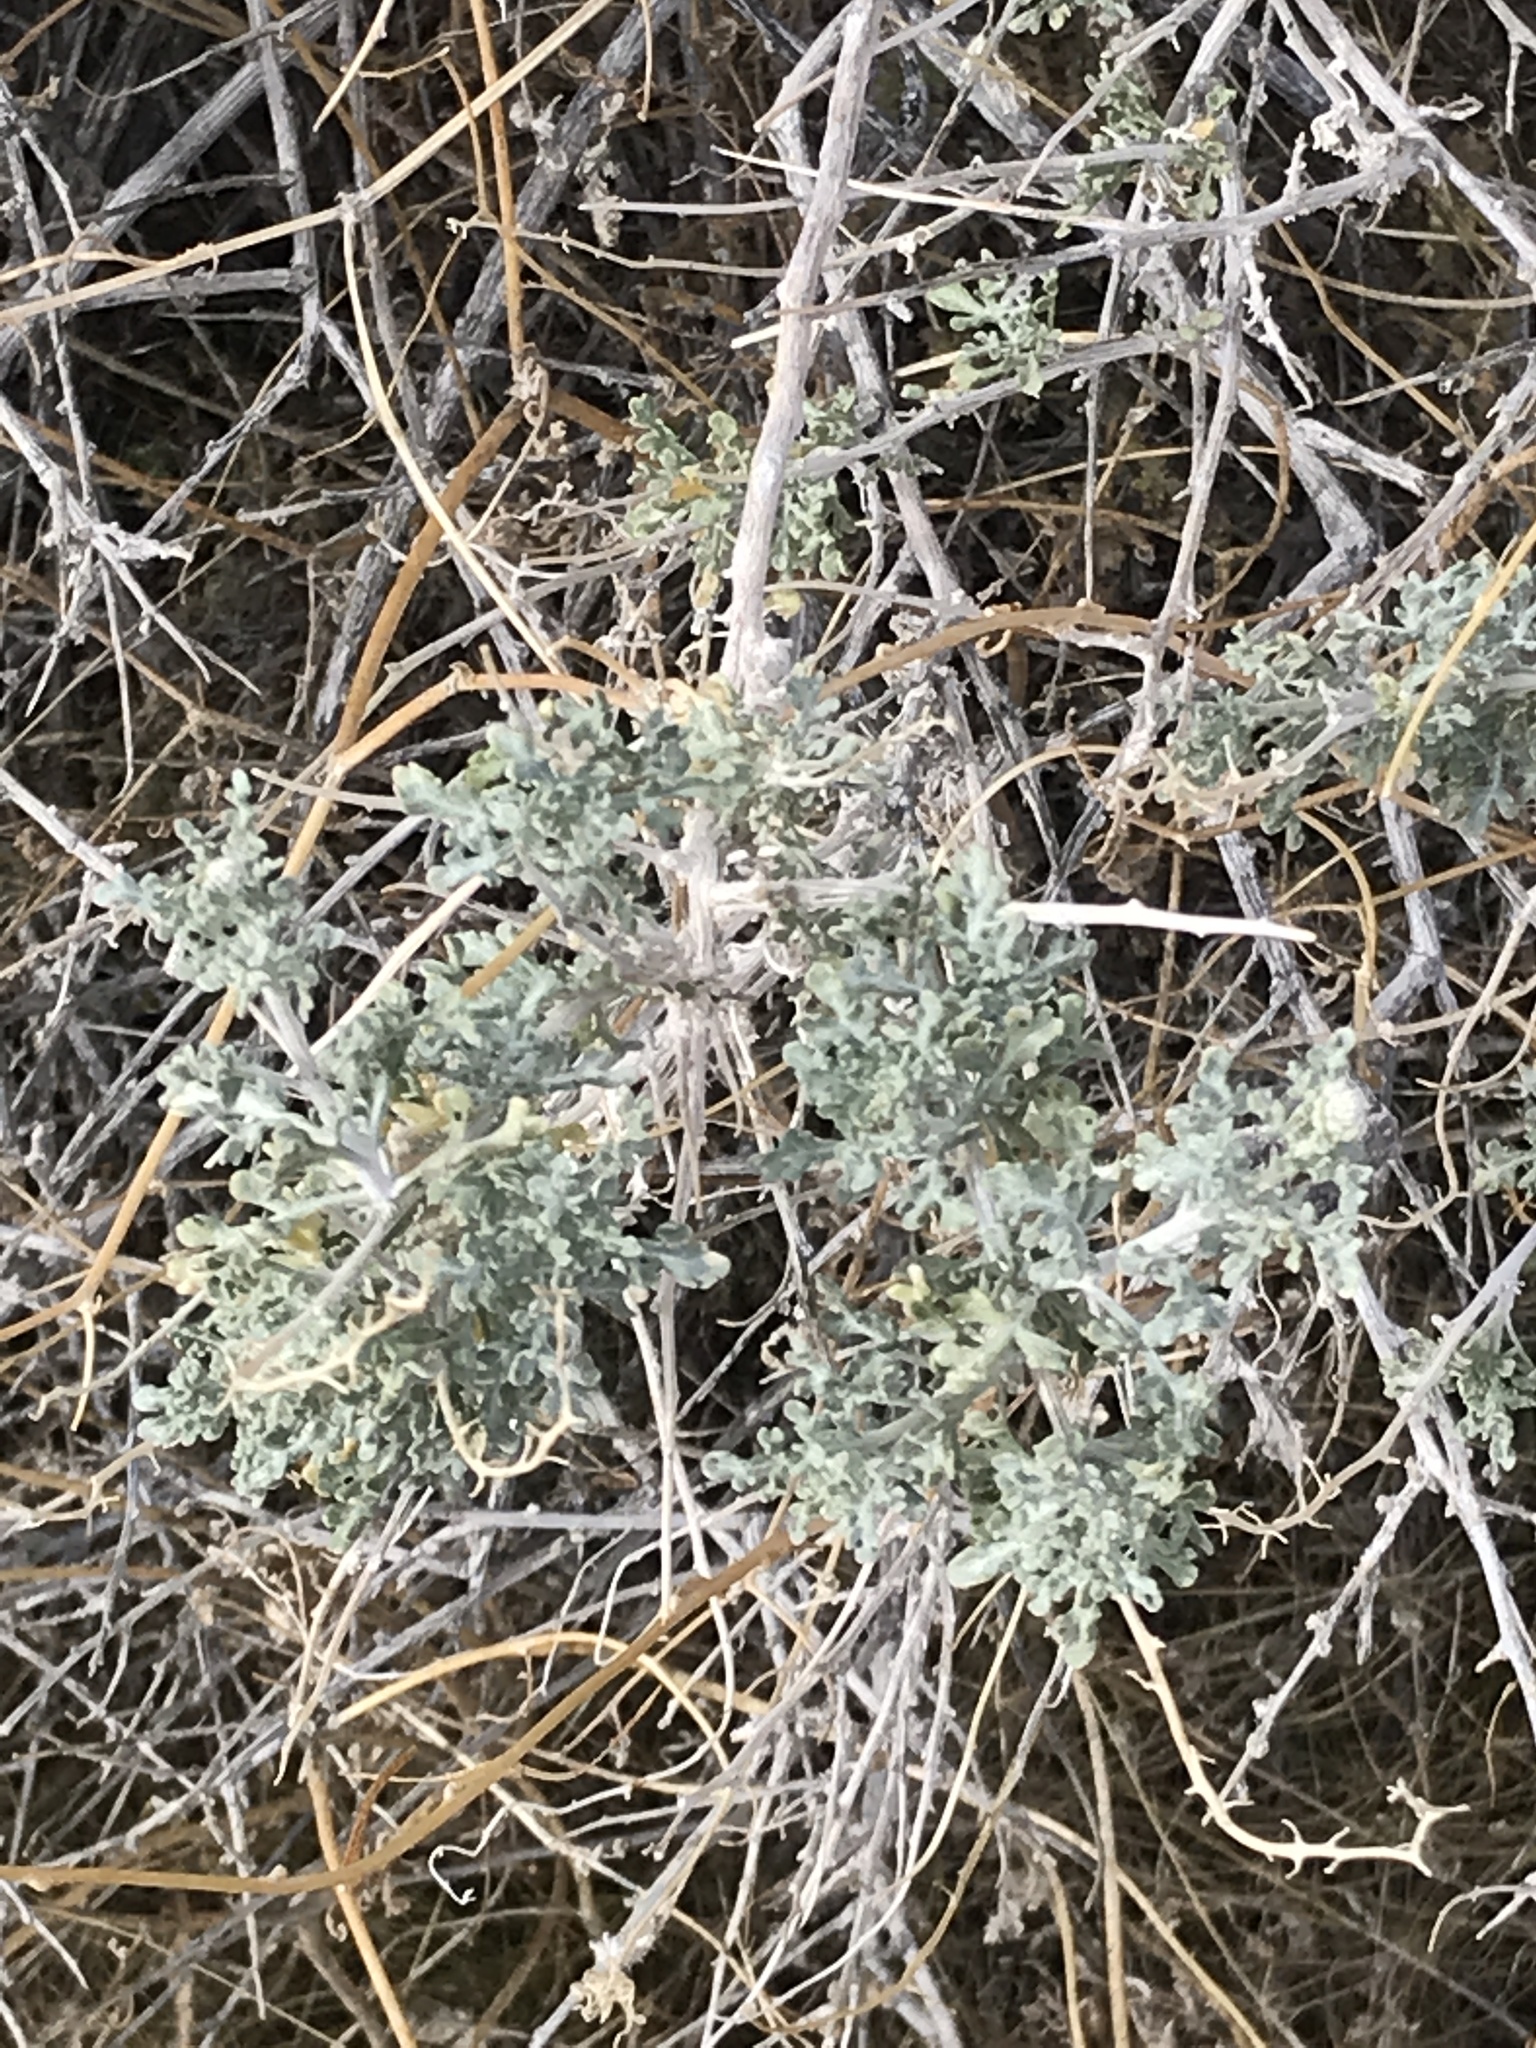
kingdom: Plantae
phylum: Tracheophyta
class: Magnoliopsida
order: Asterales
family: Asteraceae
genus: Ambrosia
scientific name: Ambrosia dumosa
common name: Bur-sage
